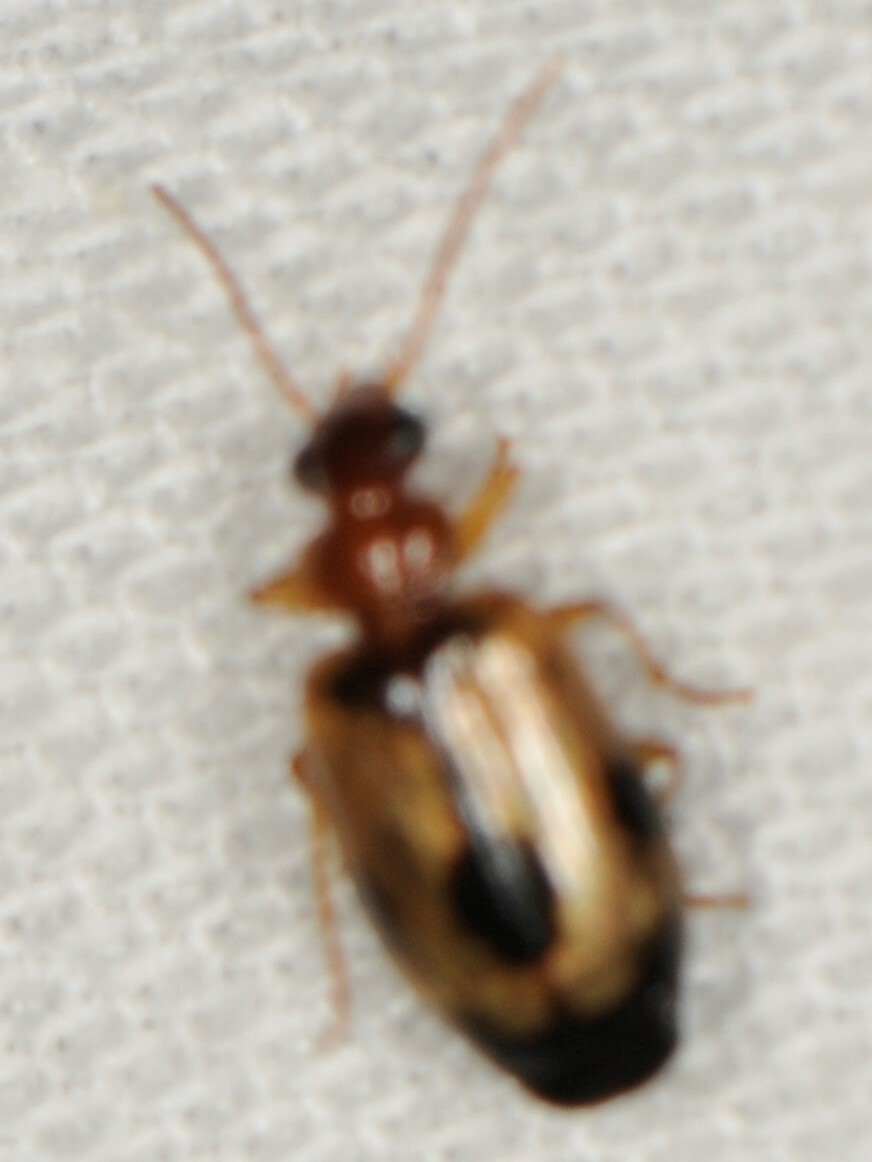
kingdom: Animalia
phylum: Arthropoda
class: Insecta
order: Coleoptera
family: Carabidae
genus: Lebia
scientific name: Lebia guttula
